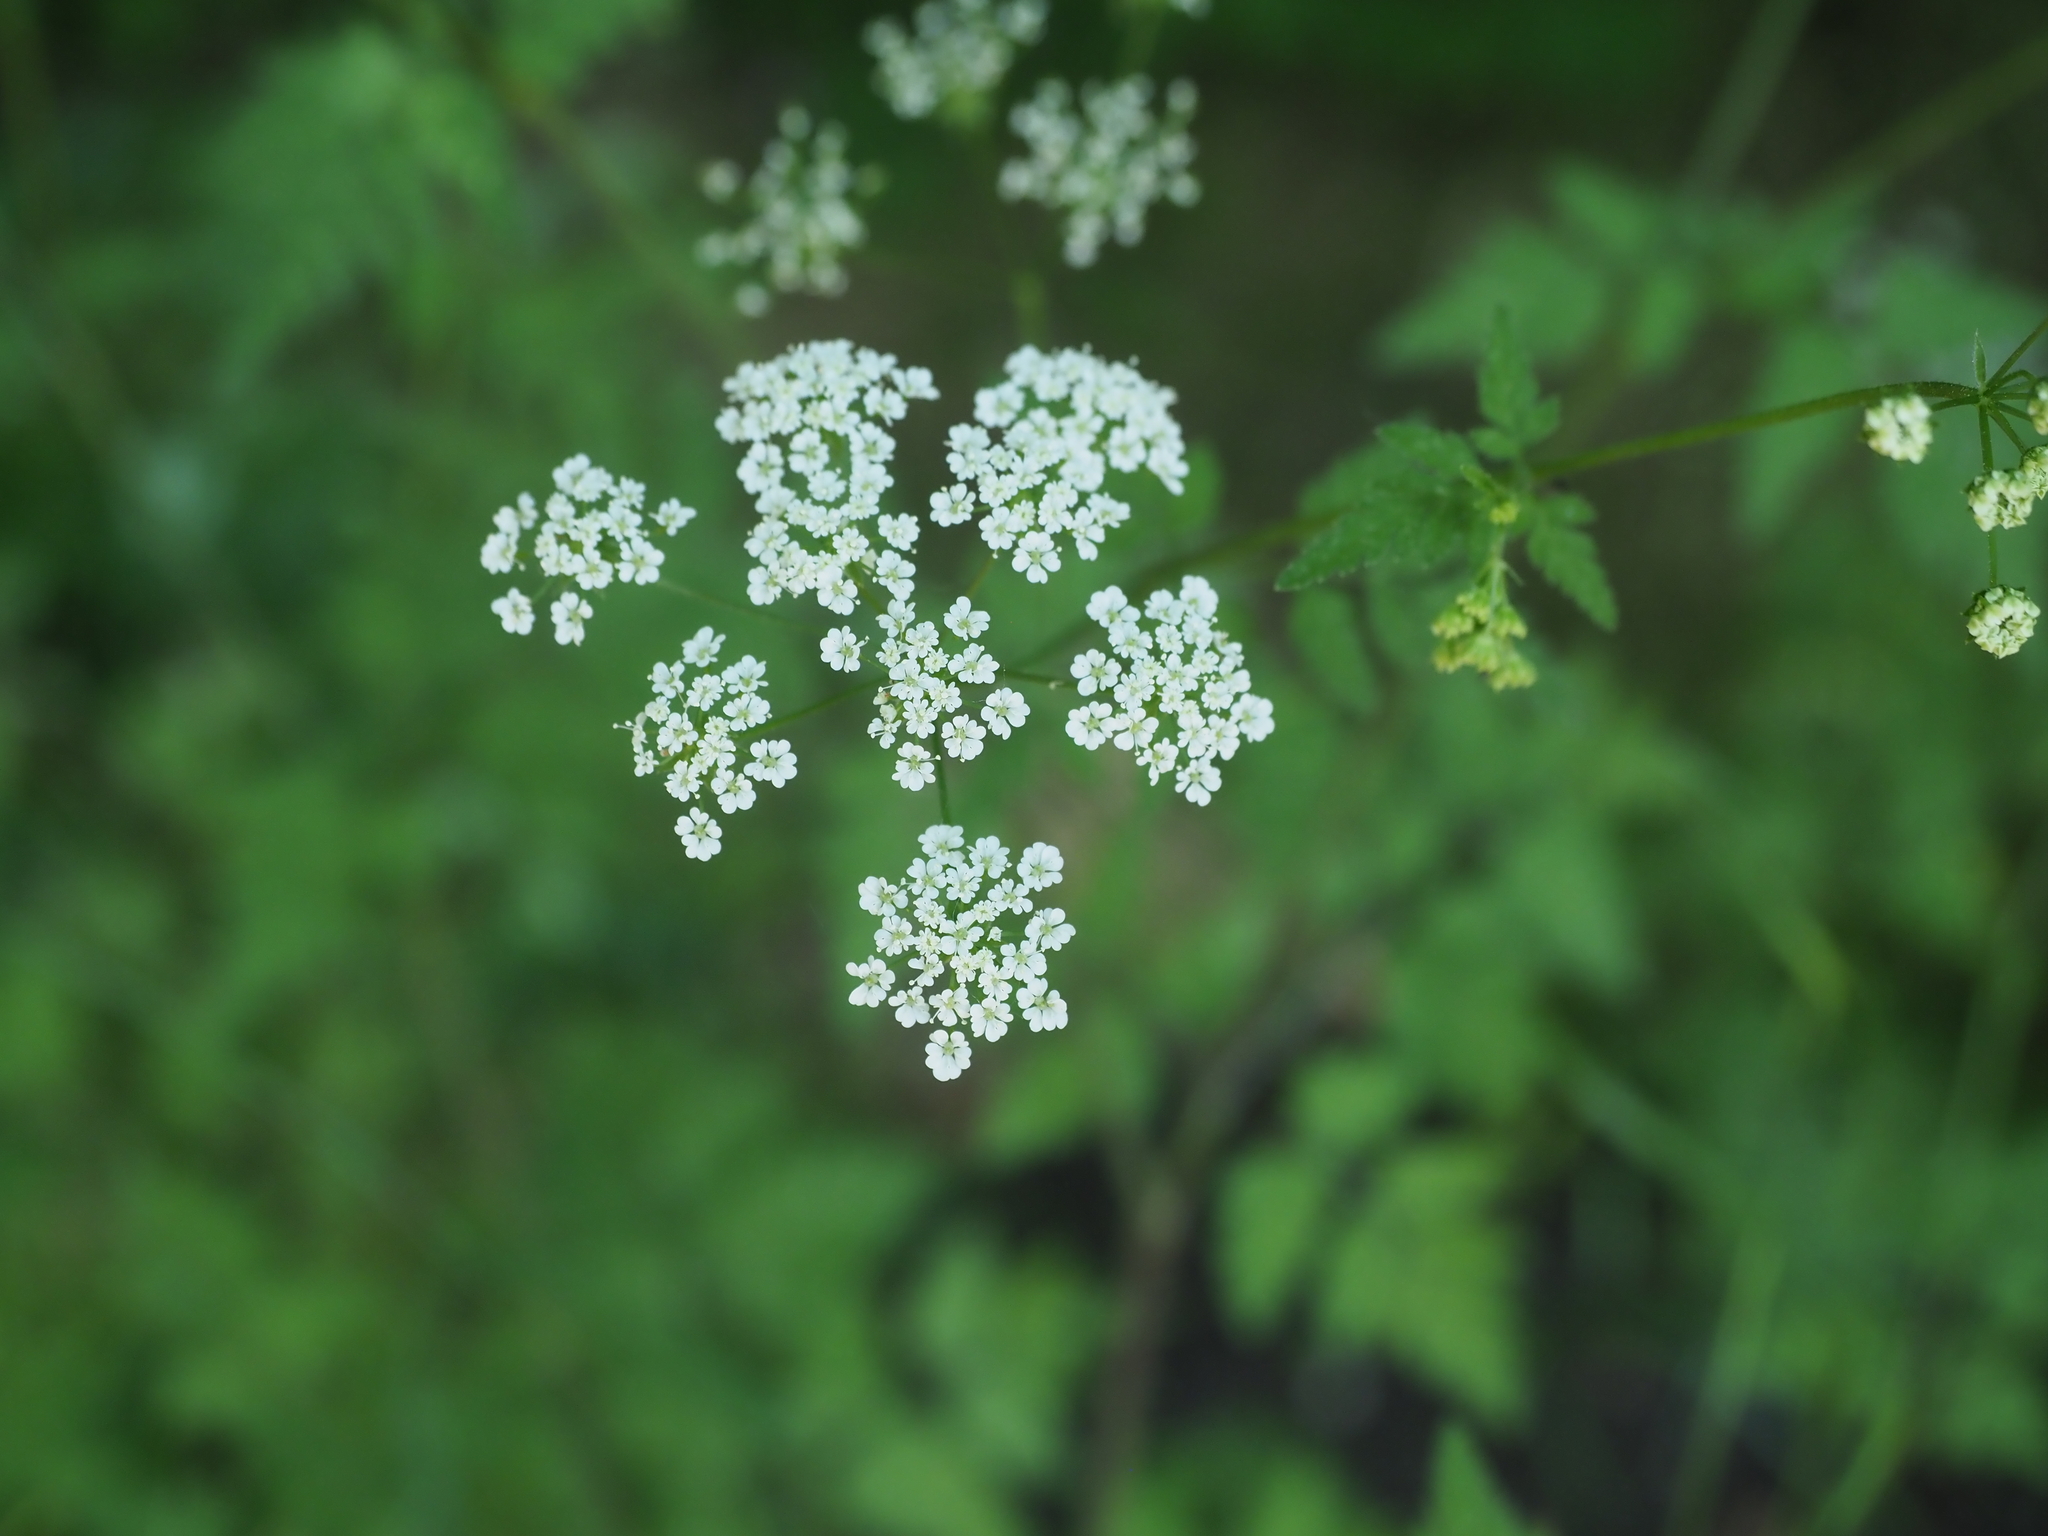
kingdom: Plantae
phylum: Tracheophyta
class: Magnoliopsida
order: Apiales
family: Apiaceae
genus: Chaerophyllum
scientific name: Chaerophyllum temulum
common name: Rough chervil
